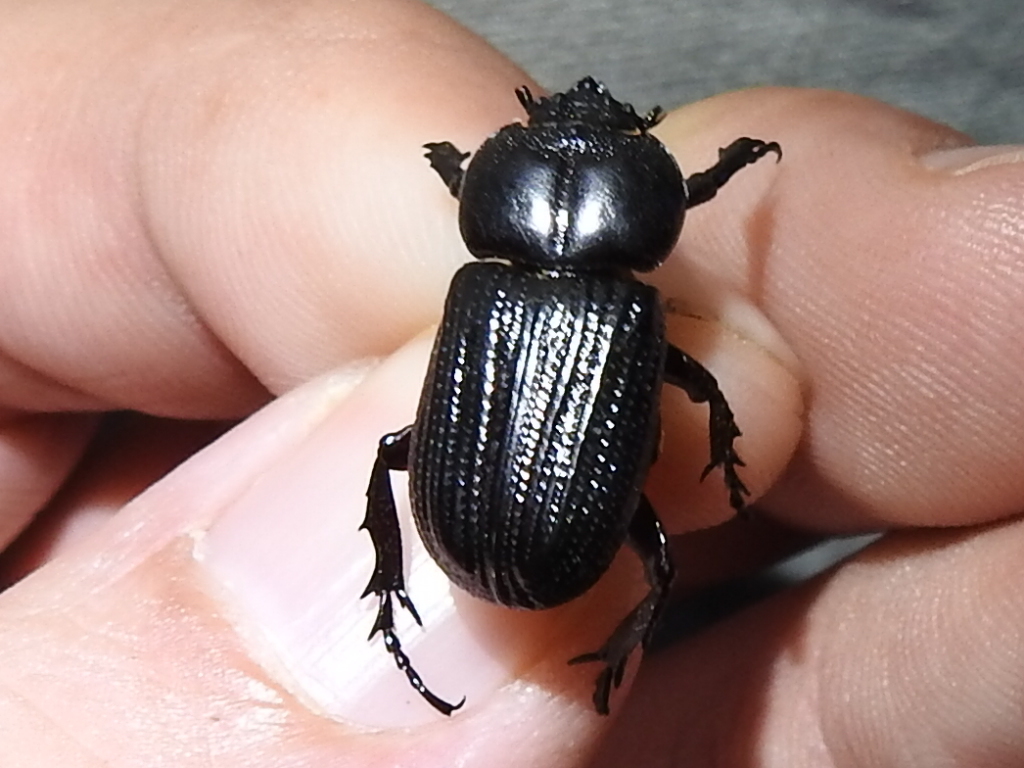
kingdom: Animalia
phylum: Arthropoda
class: Insecta
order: Coleoptera
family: Scarabaeidae
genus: Phileurus
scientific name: Phileurus valgus
